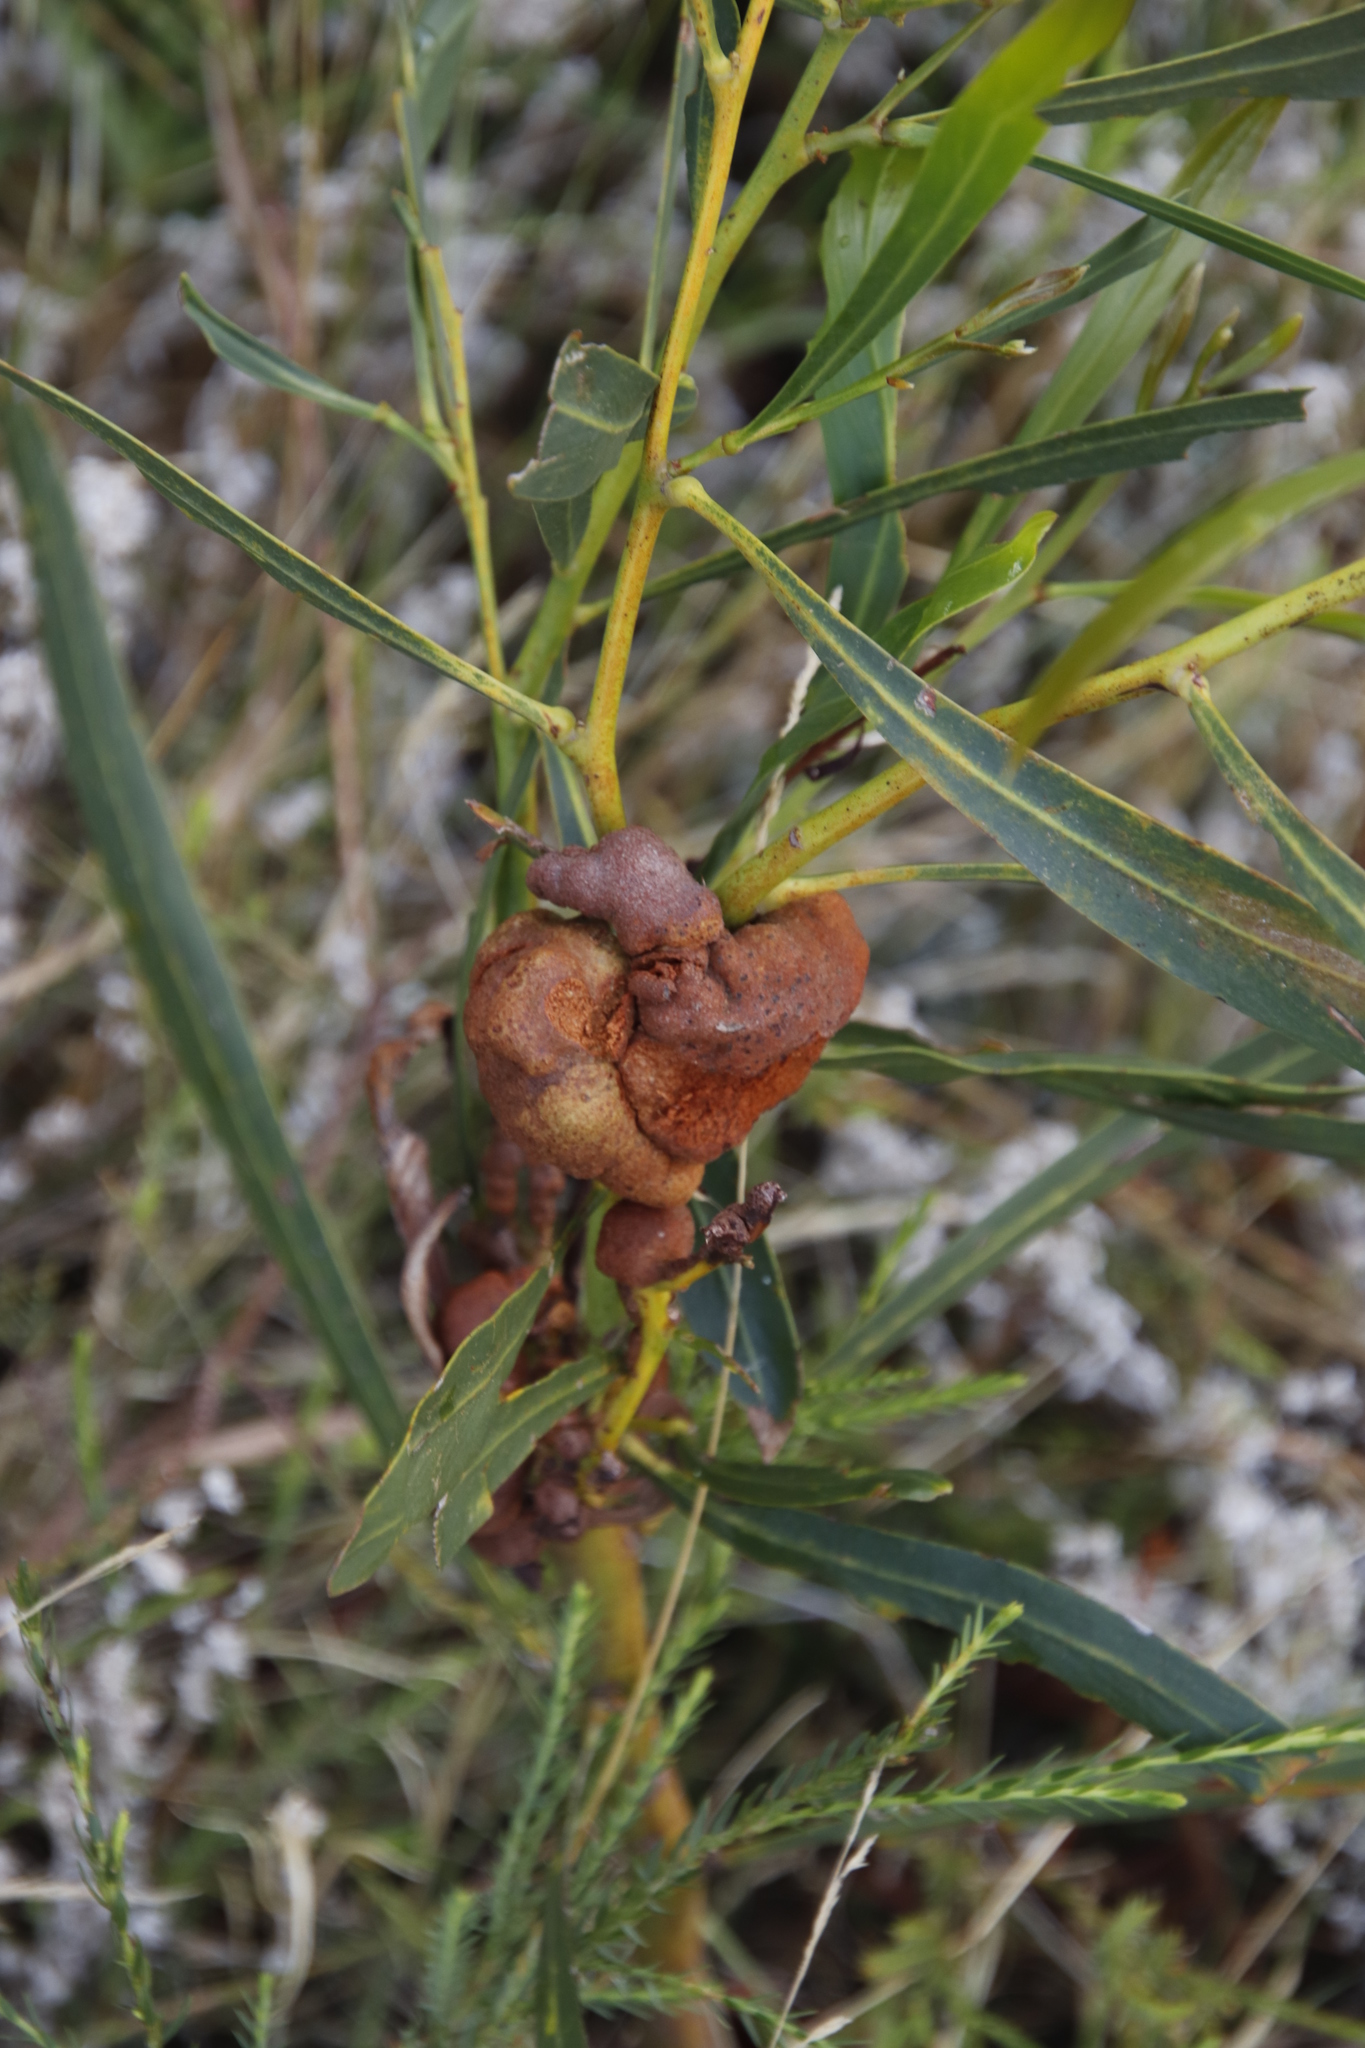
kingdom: Plantae
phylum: Tracheophyta
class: Magnoliopsida
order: Fabales
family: Fabaceae
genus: Acacia
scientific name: Acacia saligna
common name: Orange wattle
